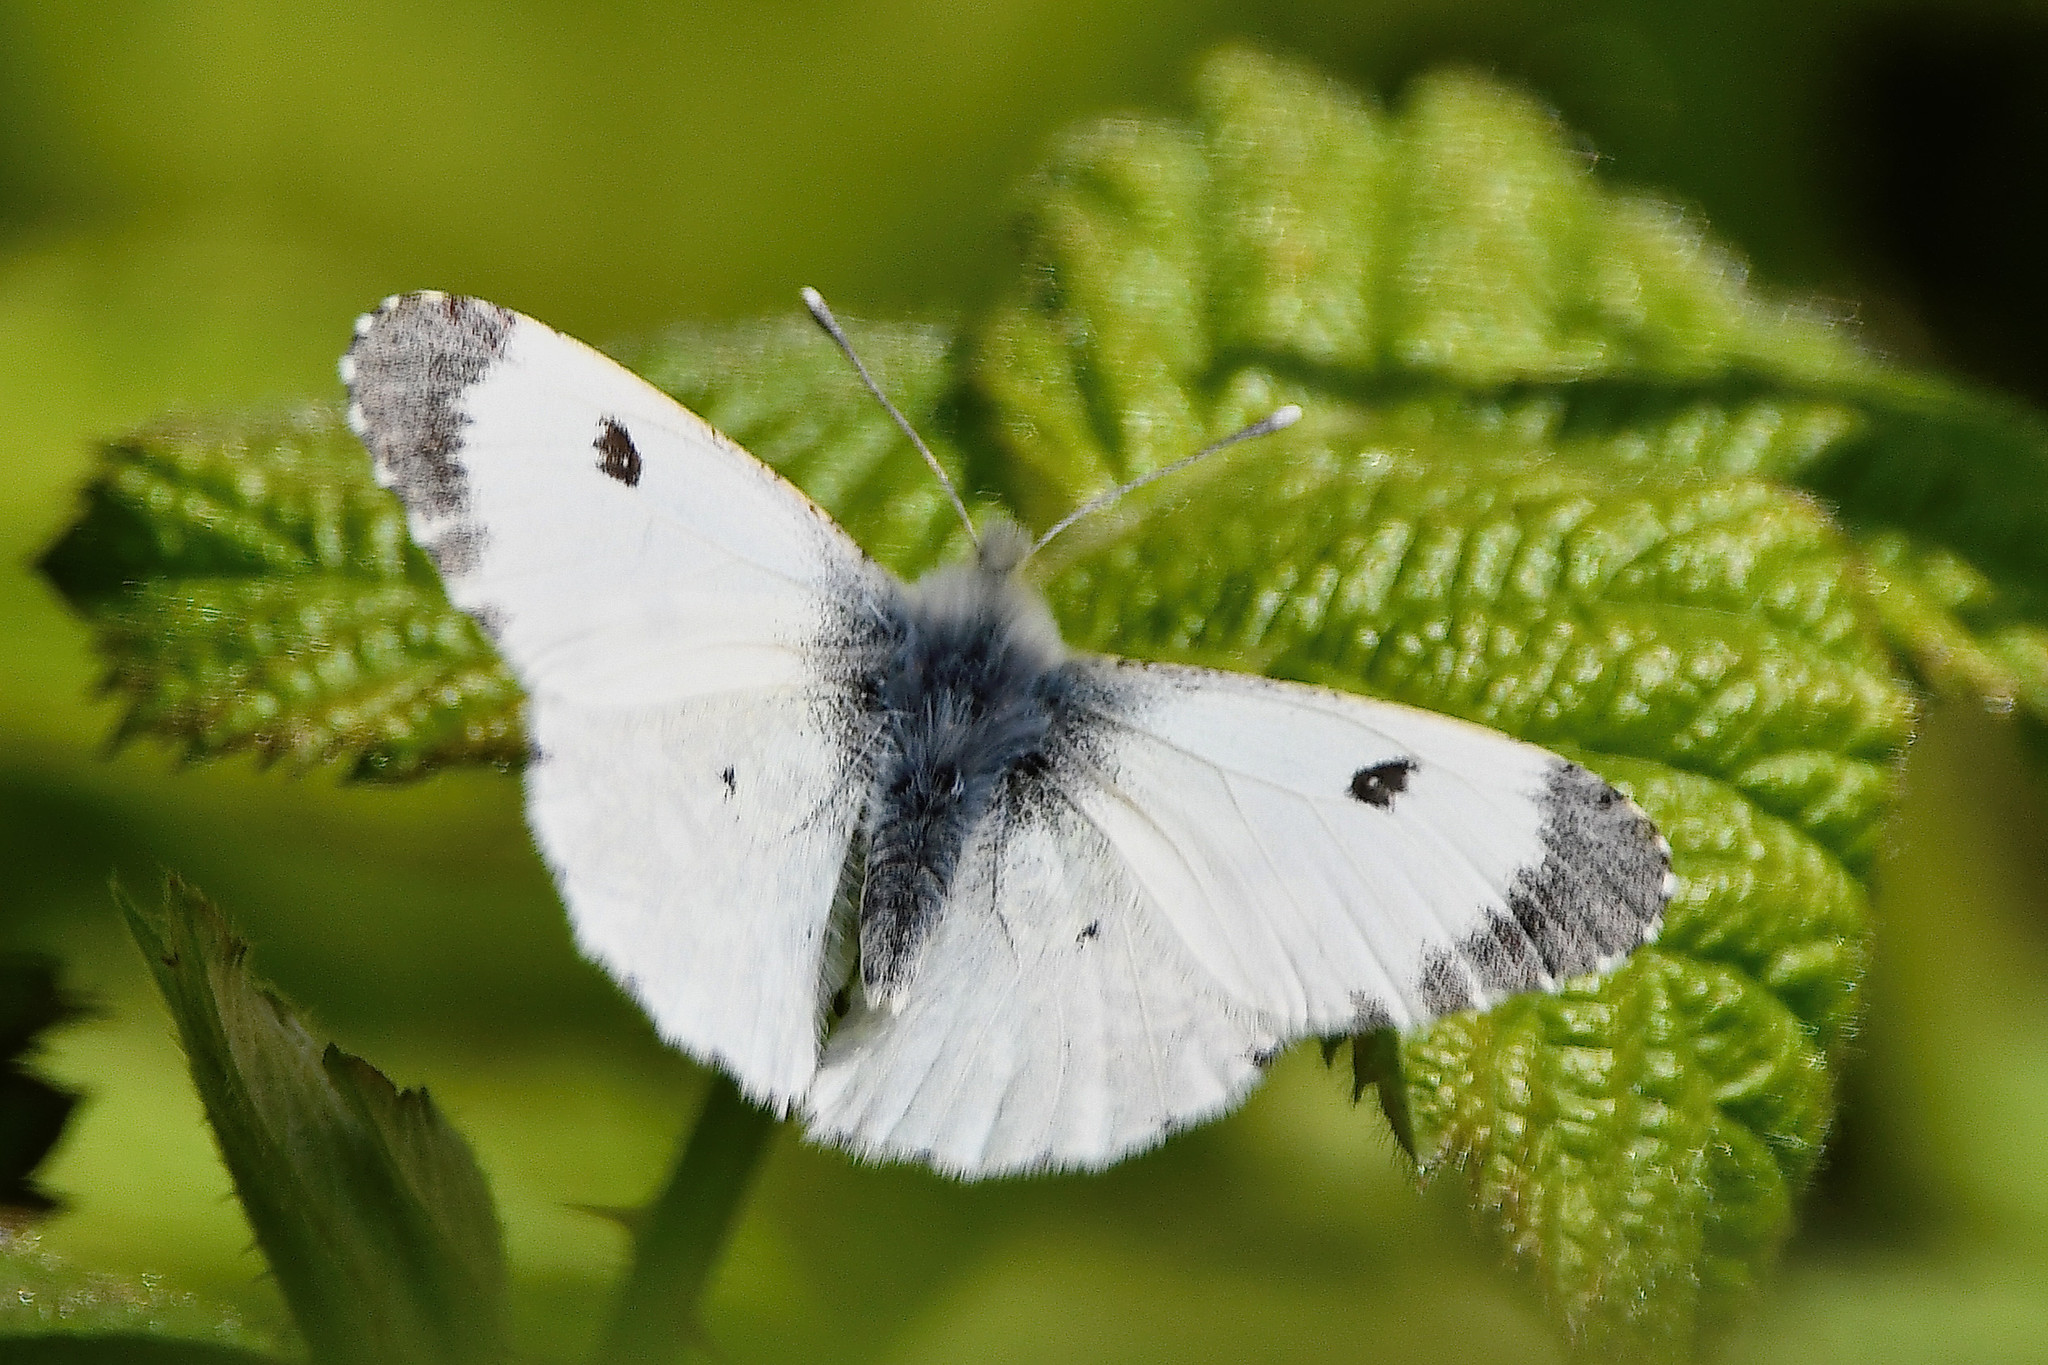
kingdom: Animalia
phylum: Arthropoda
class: Insecta
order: Lepidoptera
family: Pieridae
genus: Anthocharis
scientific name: Anthocharis cardamines
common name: Orange-tip
